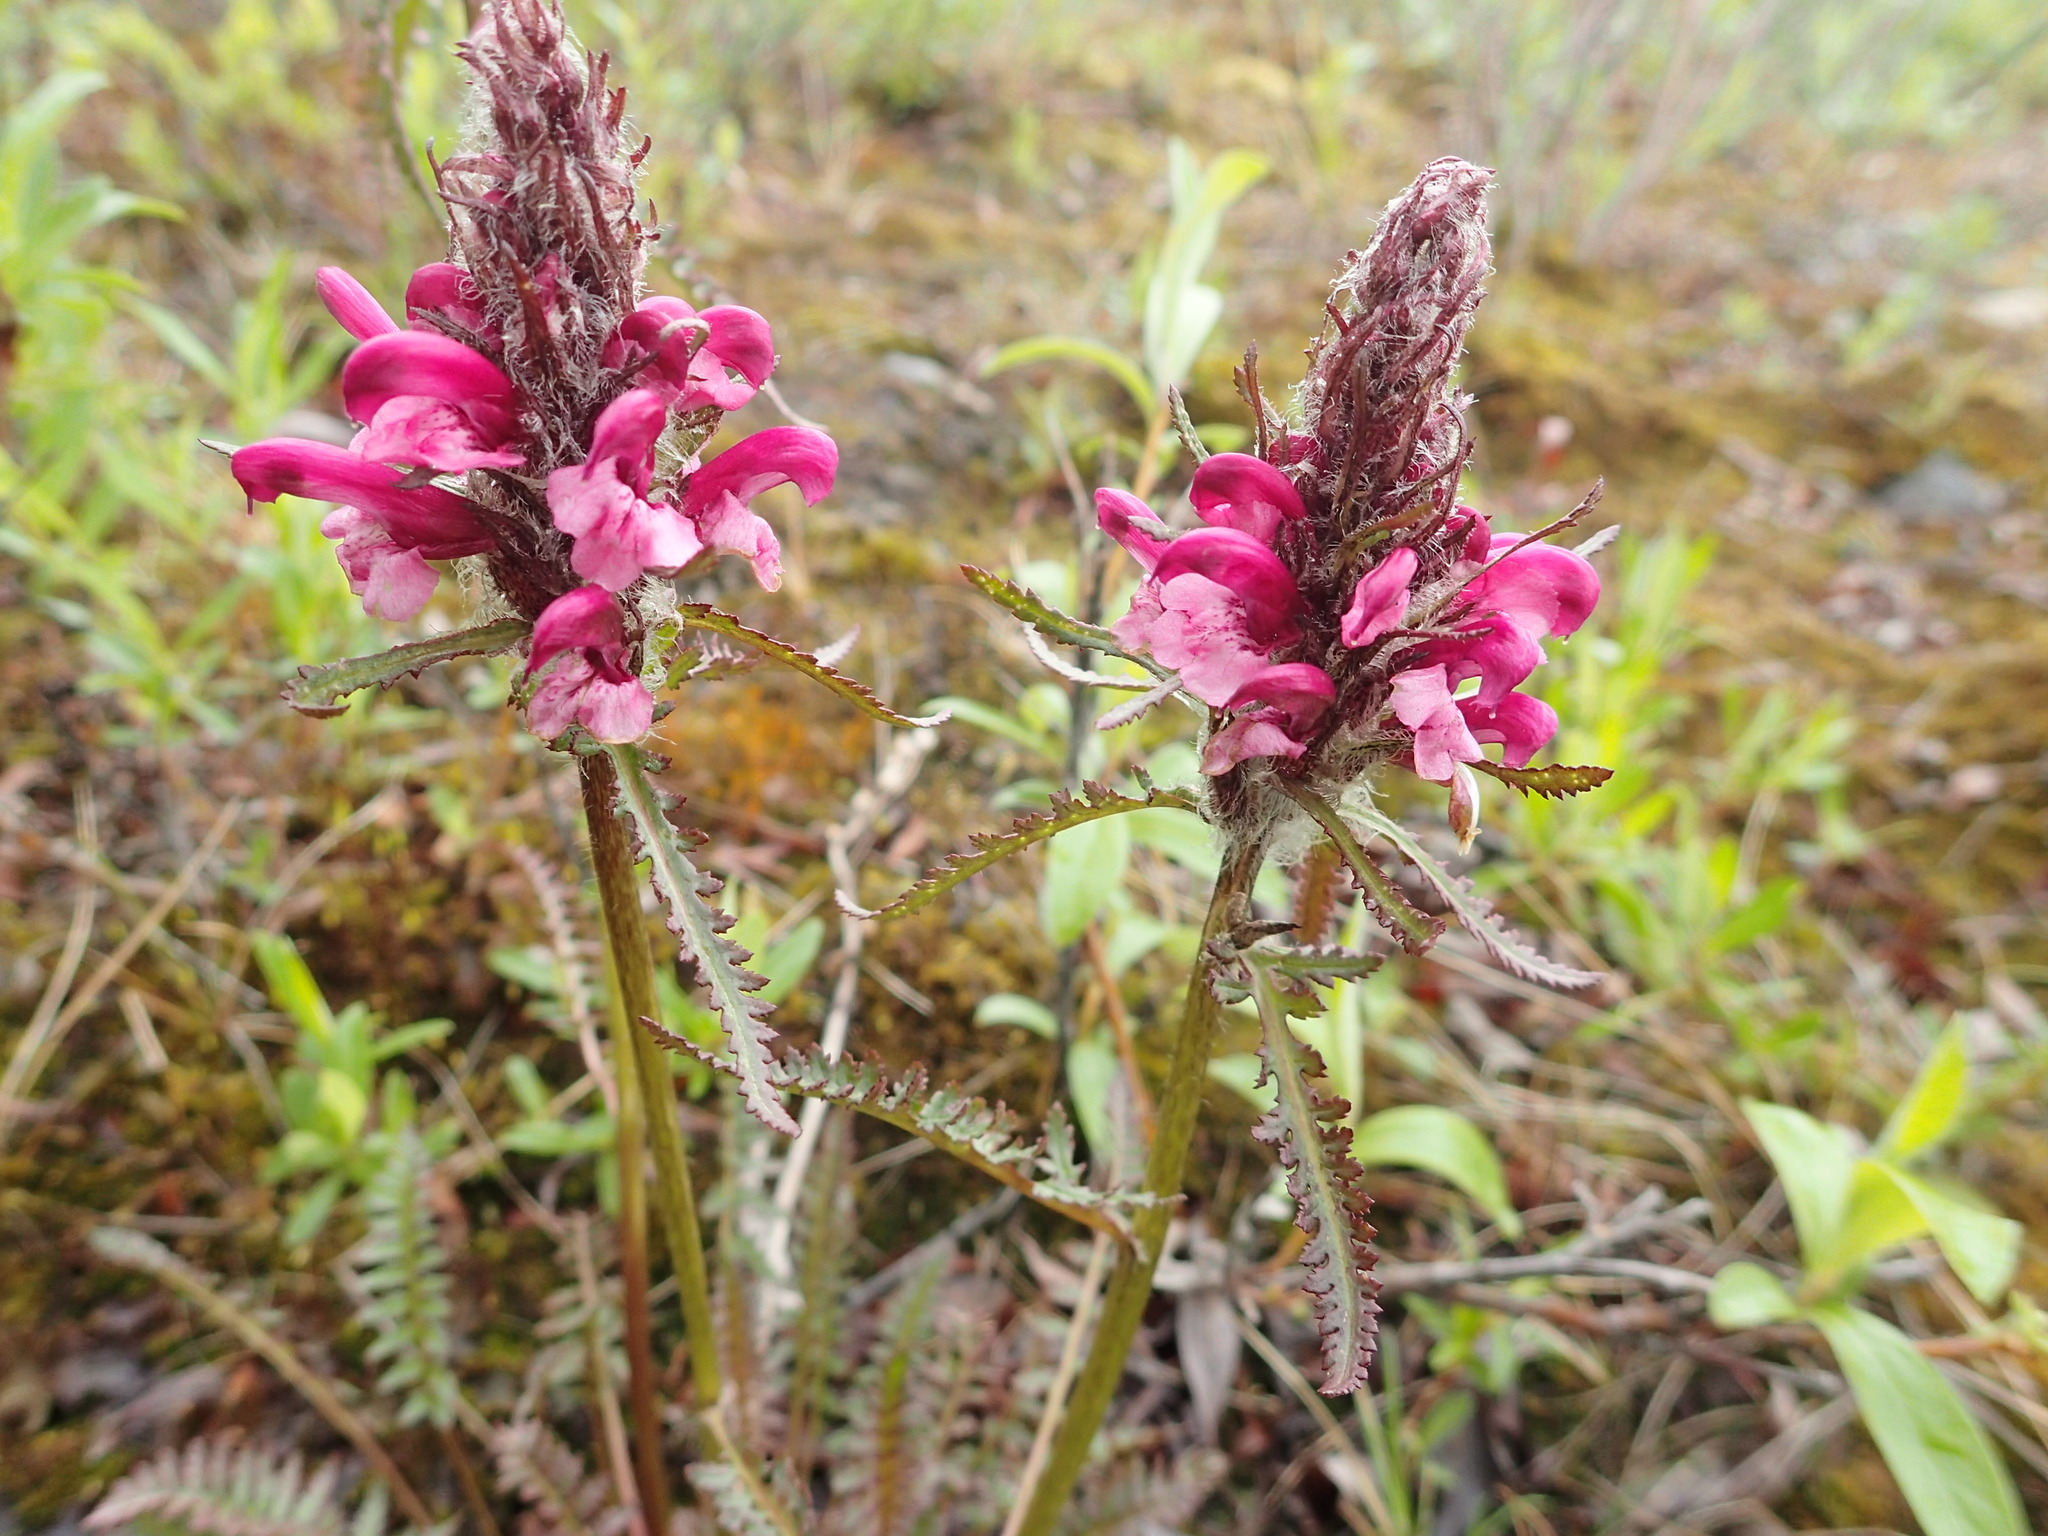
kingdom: Plantae
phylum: Tracheophyta
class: Magnoliopsida
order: Lamiales
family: Orobanchaceae
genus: Pedicularis
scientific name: Pedicularis novaiae-zemliae
